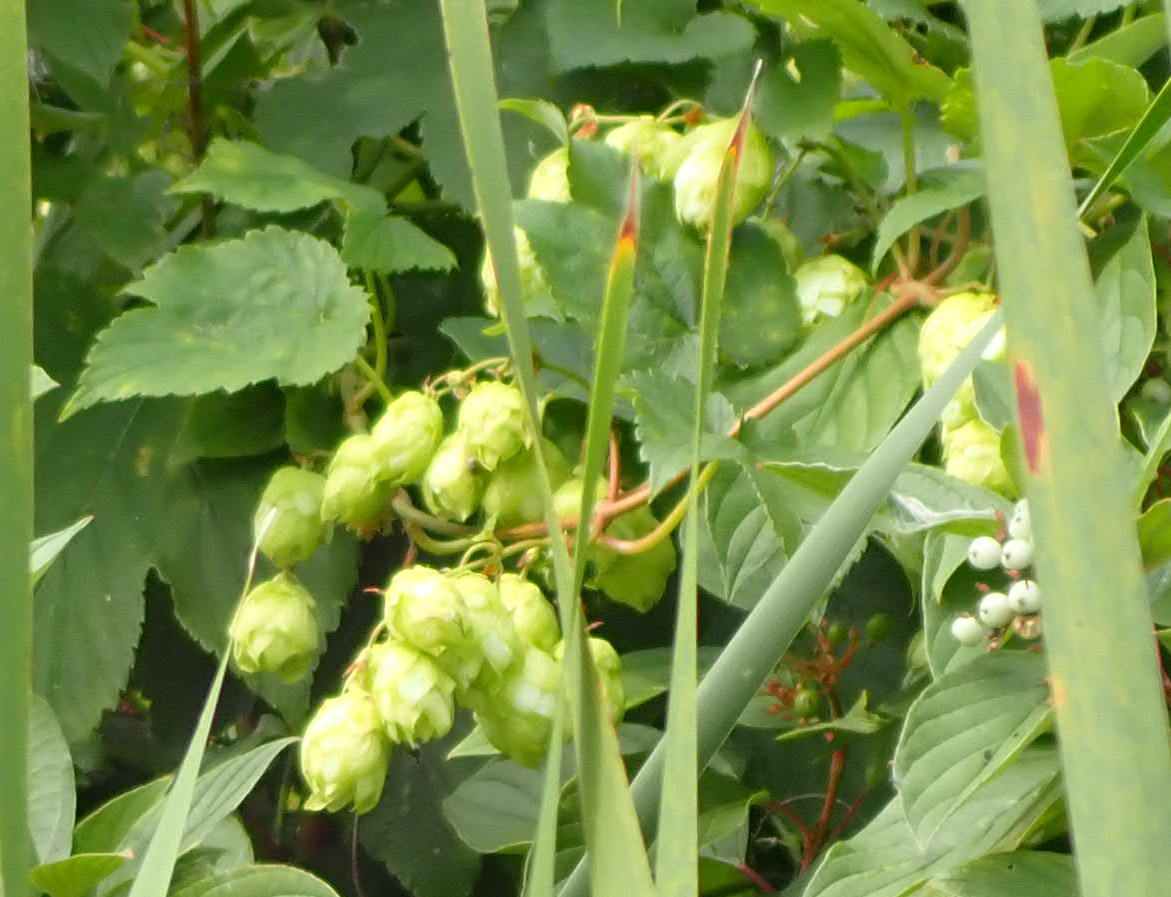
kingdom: Plantae
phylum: Tracheophyta
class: Magnoliopsida
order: Rosales
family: Cannabaceae
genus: Humulus
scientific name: Humulus lupulus
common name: Hop
